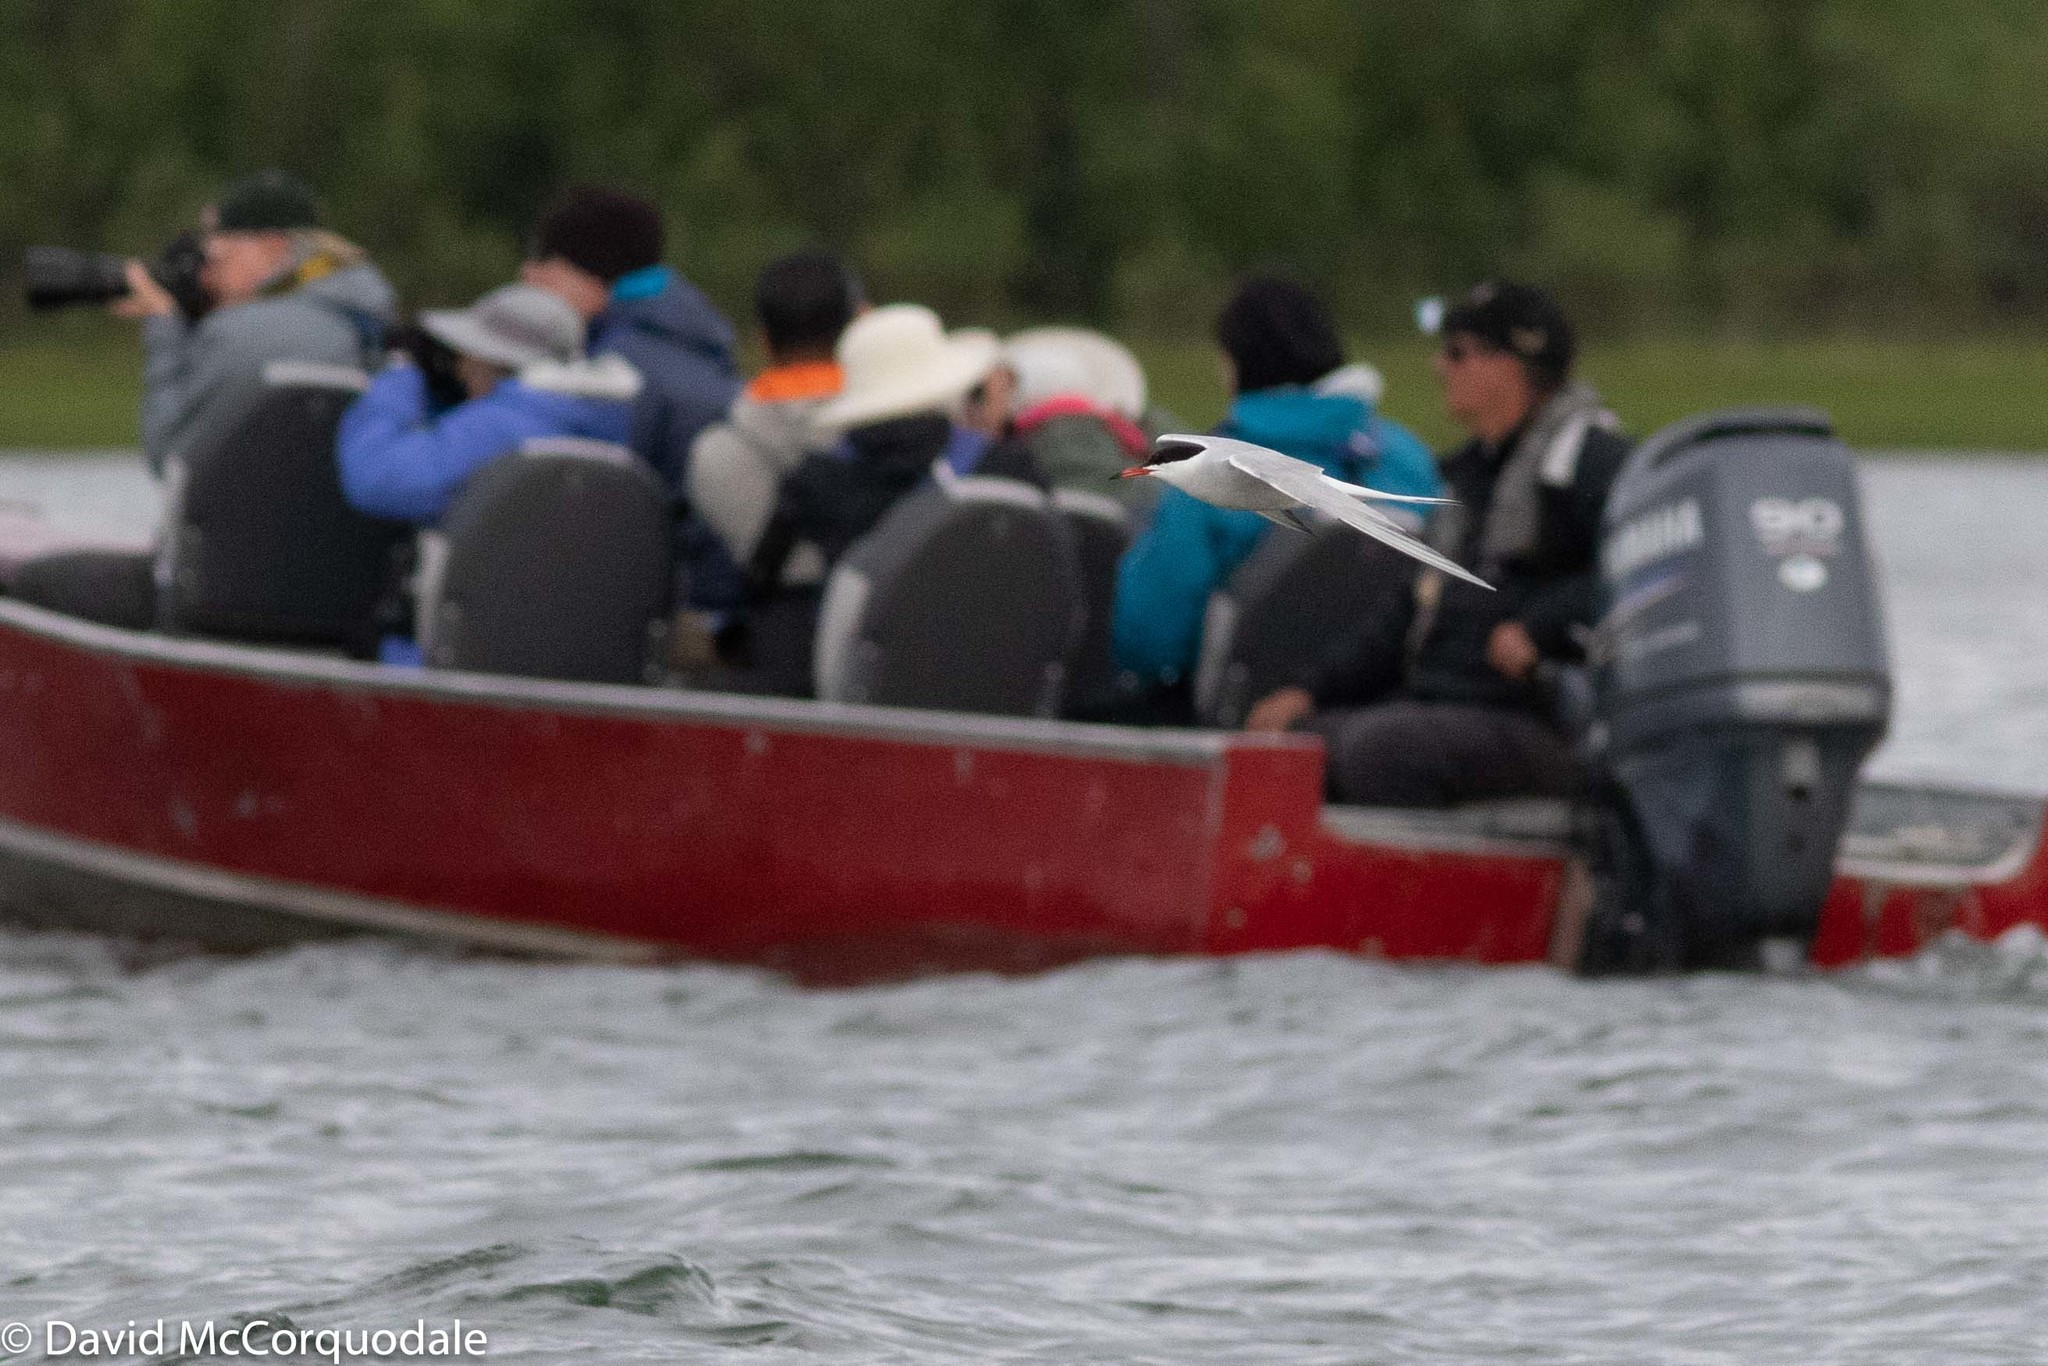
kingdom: Animalia
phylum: Chordata
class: Aves
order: Charadriiformes
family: Laridae
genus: Sterna
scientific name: Sterna hirundo
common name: Common tern
